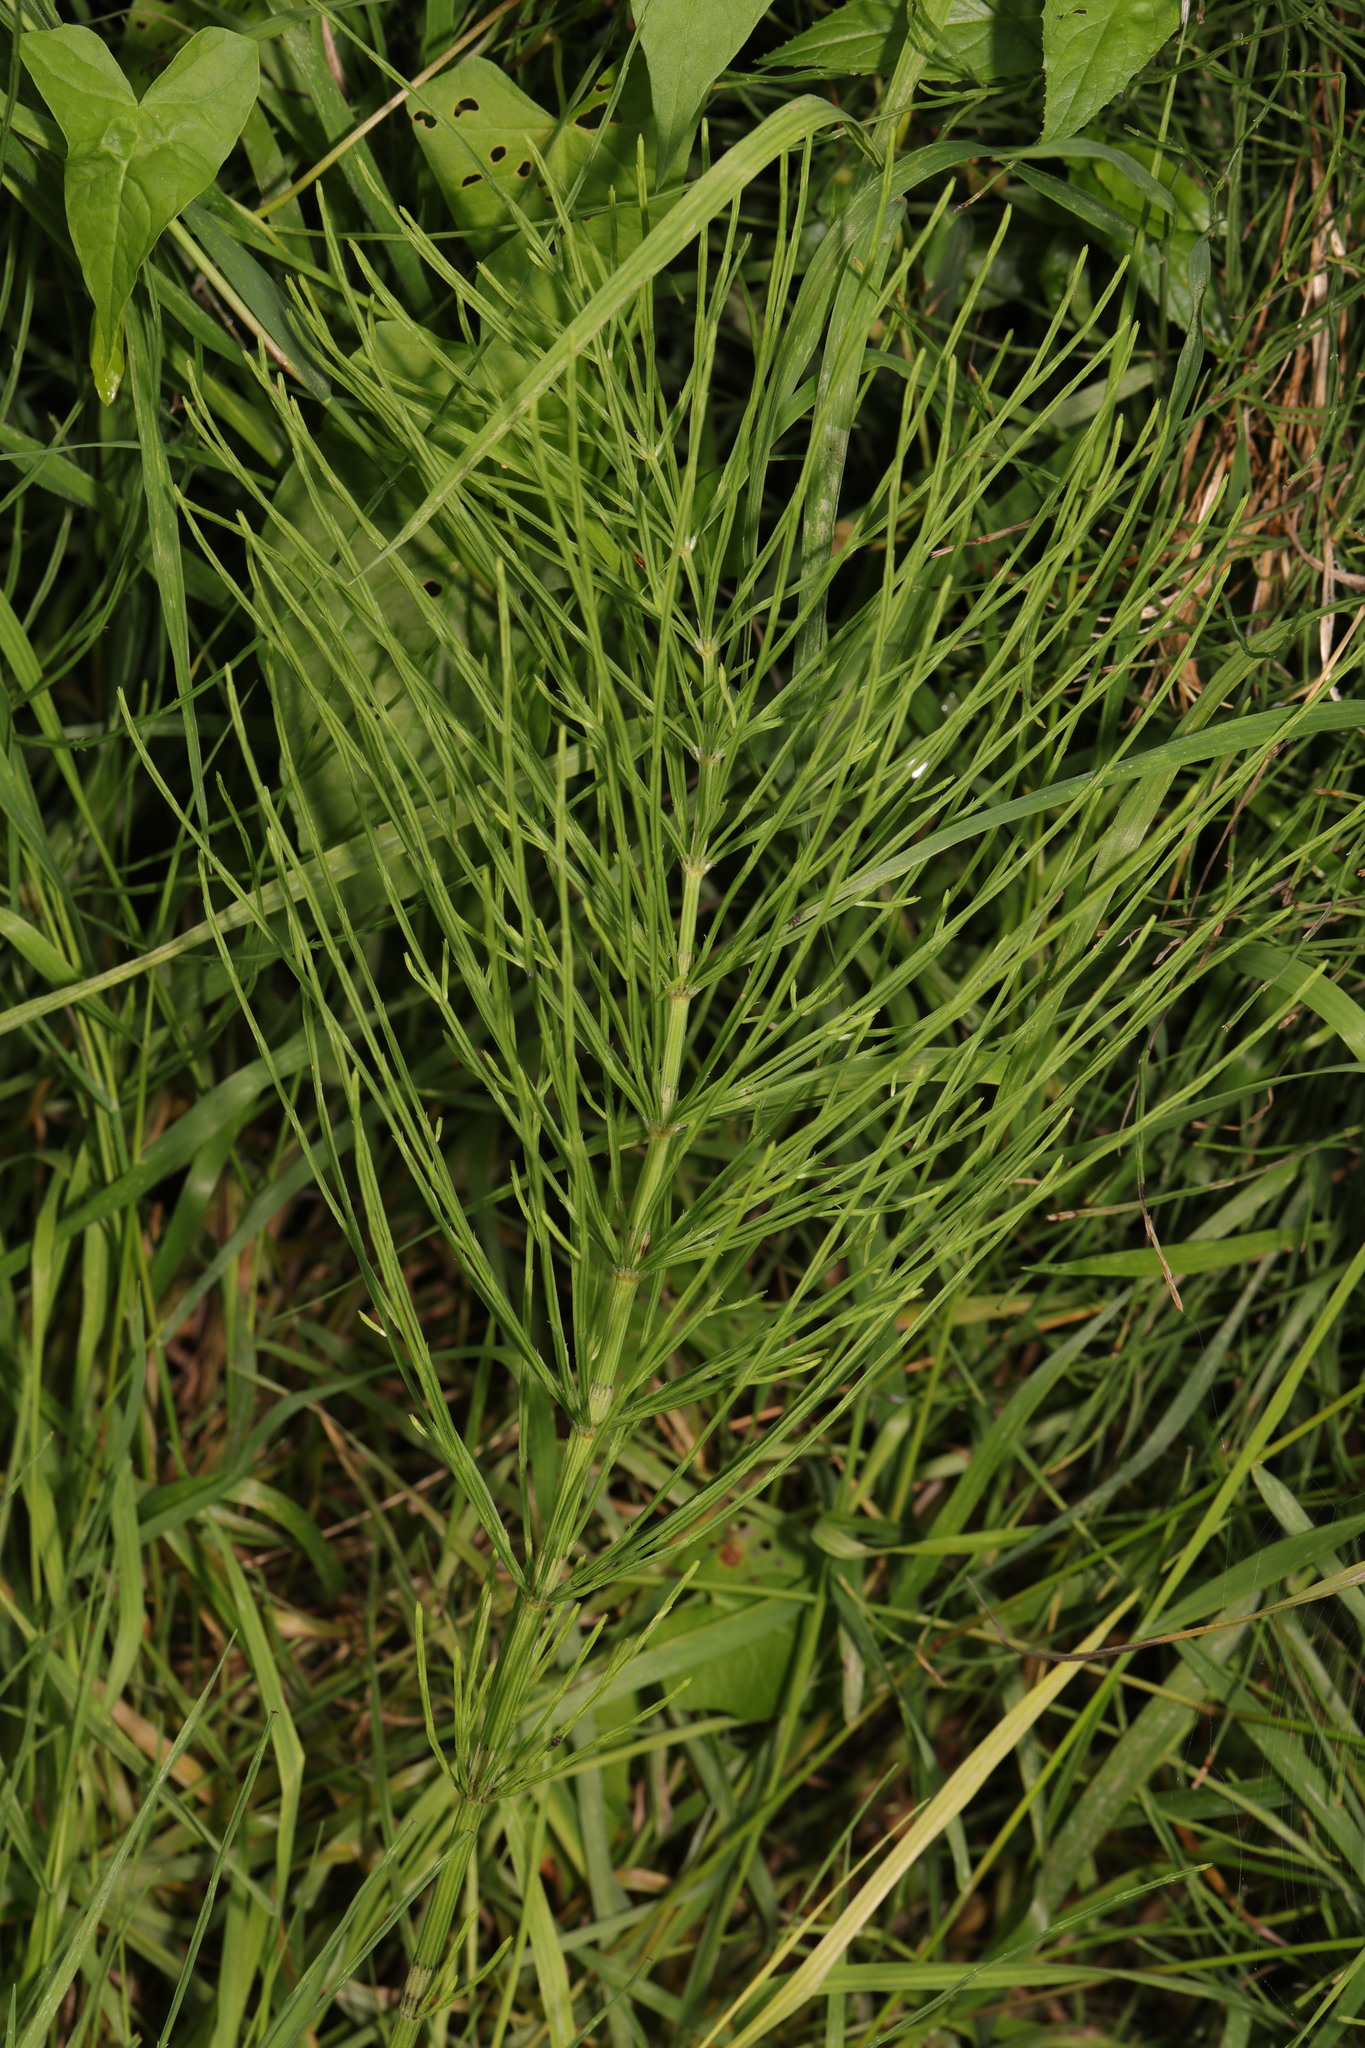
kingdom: Plantae
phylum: Tracheophyta
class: Polypodiopsida
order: Equisetales
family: Equisetaceae
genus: Equisetum
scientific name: Equisetum arvense
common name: Field horsetail
